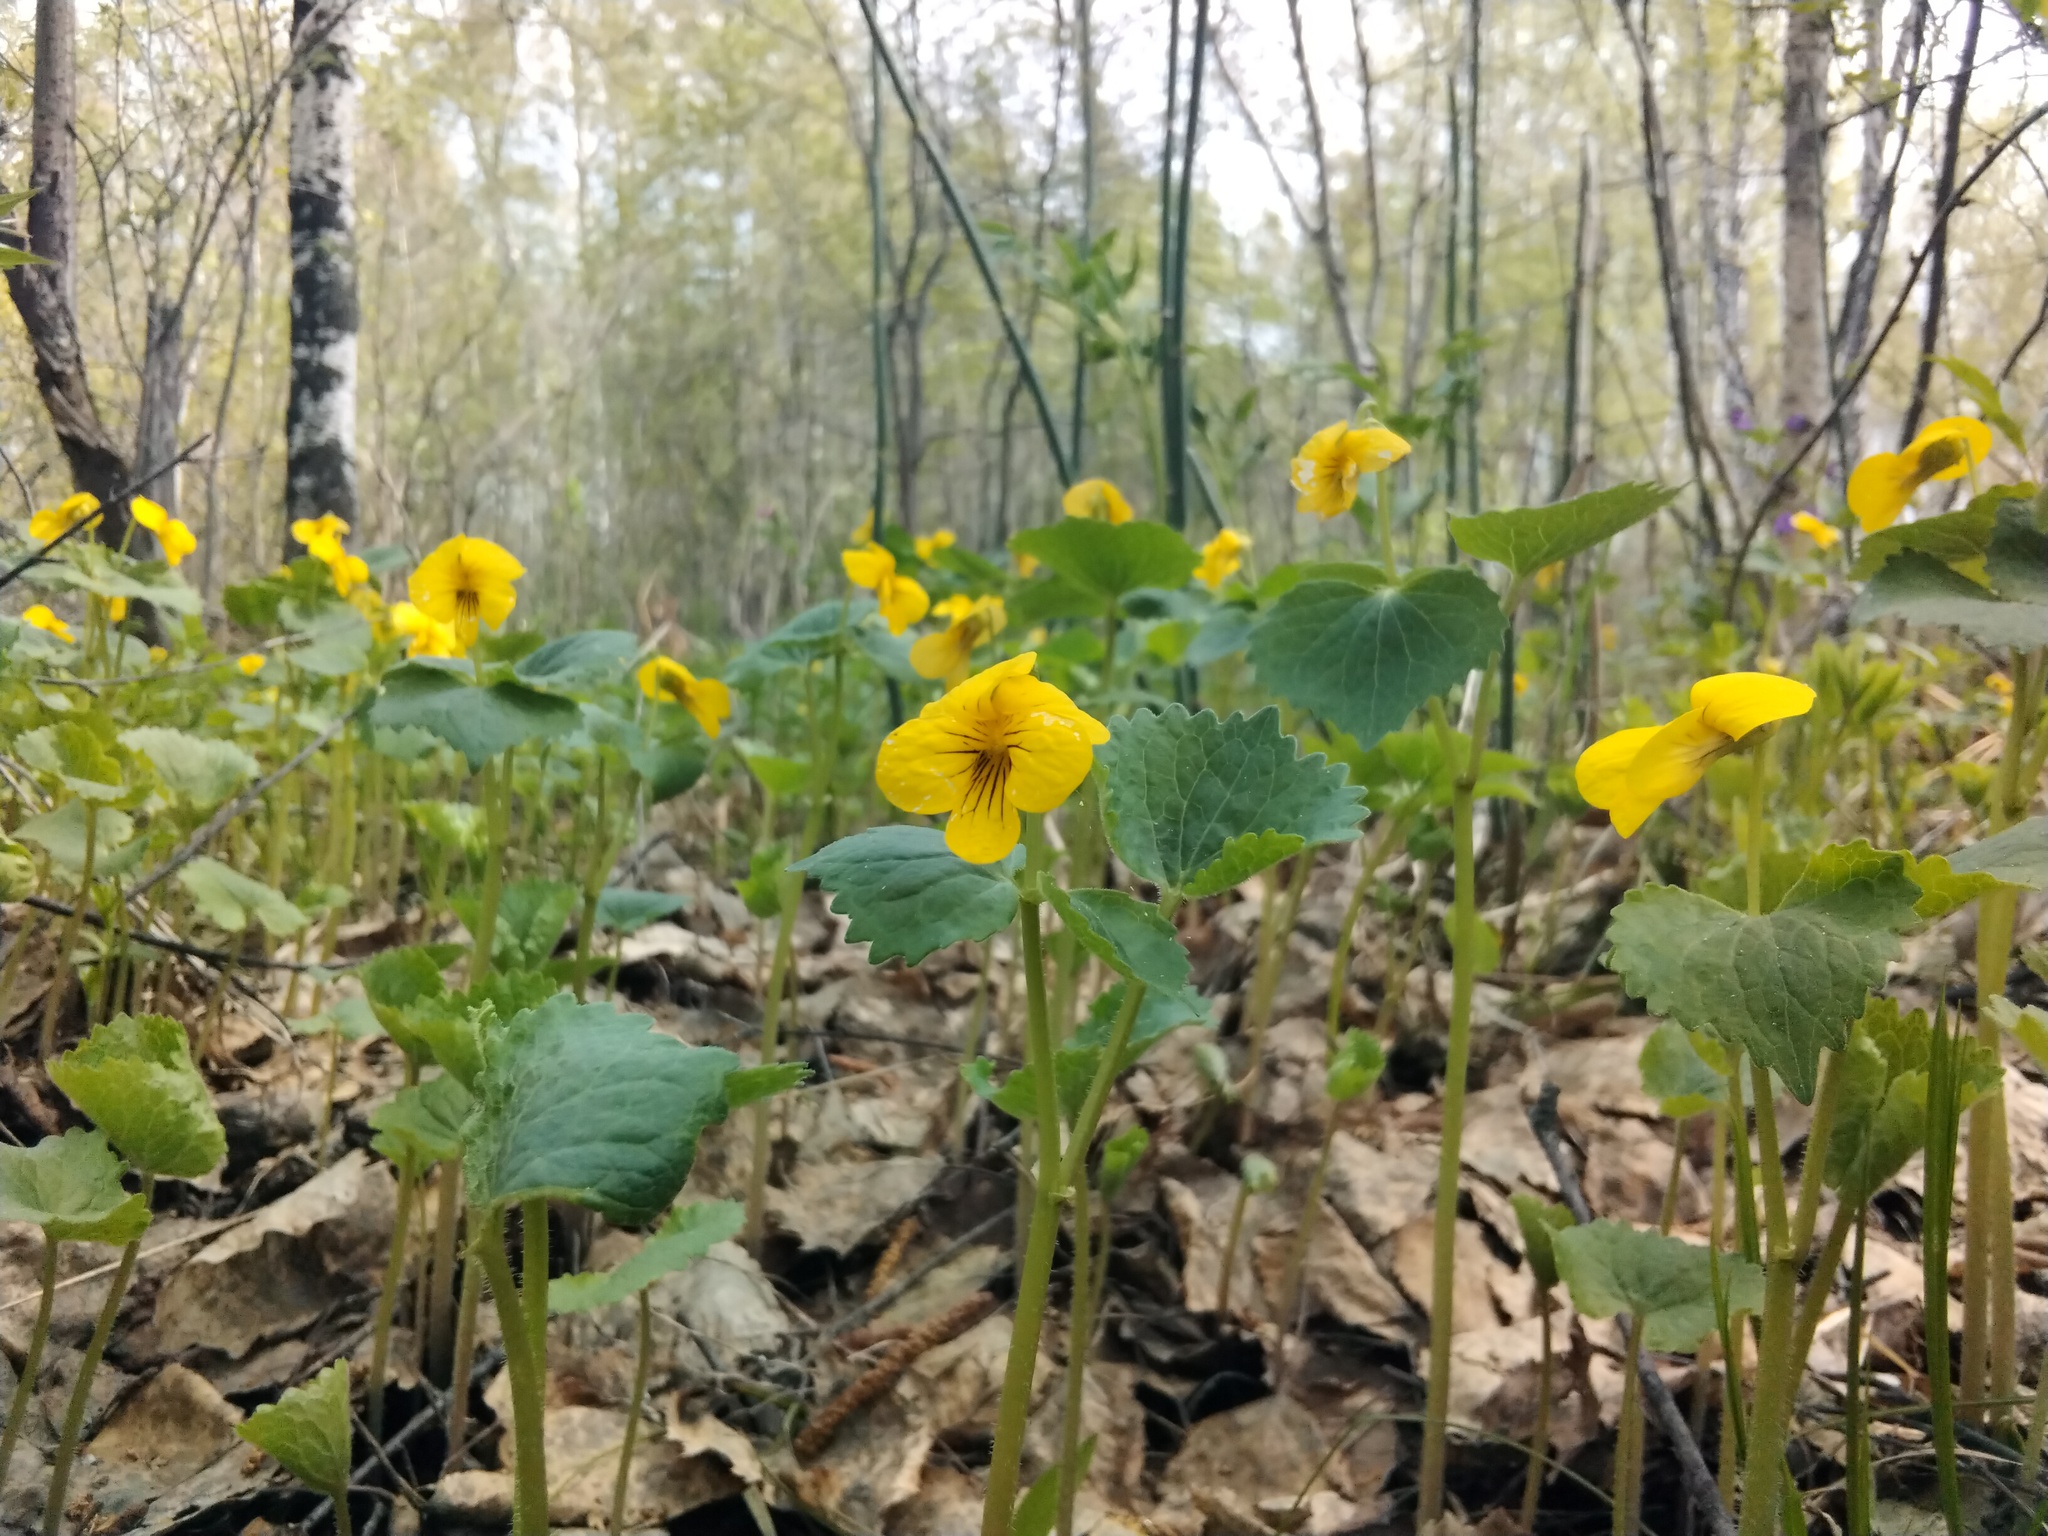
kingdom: Plantae
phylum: Tracheophyta
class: Magnoliopsida
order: Malpighiales
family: Violaceae
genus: Viola
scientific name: Viola uniflora
